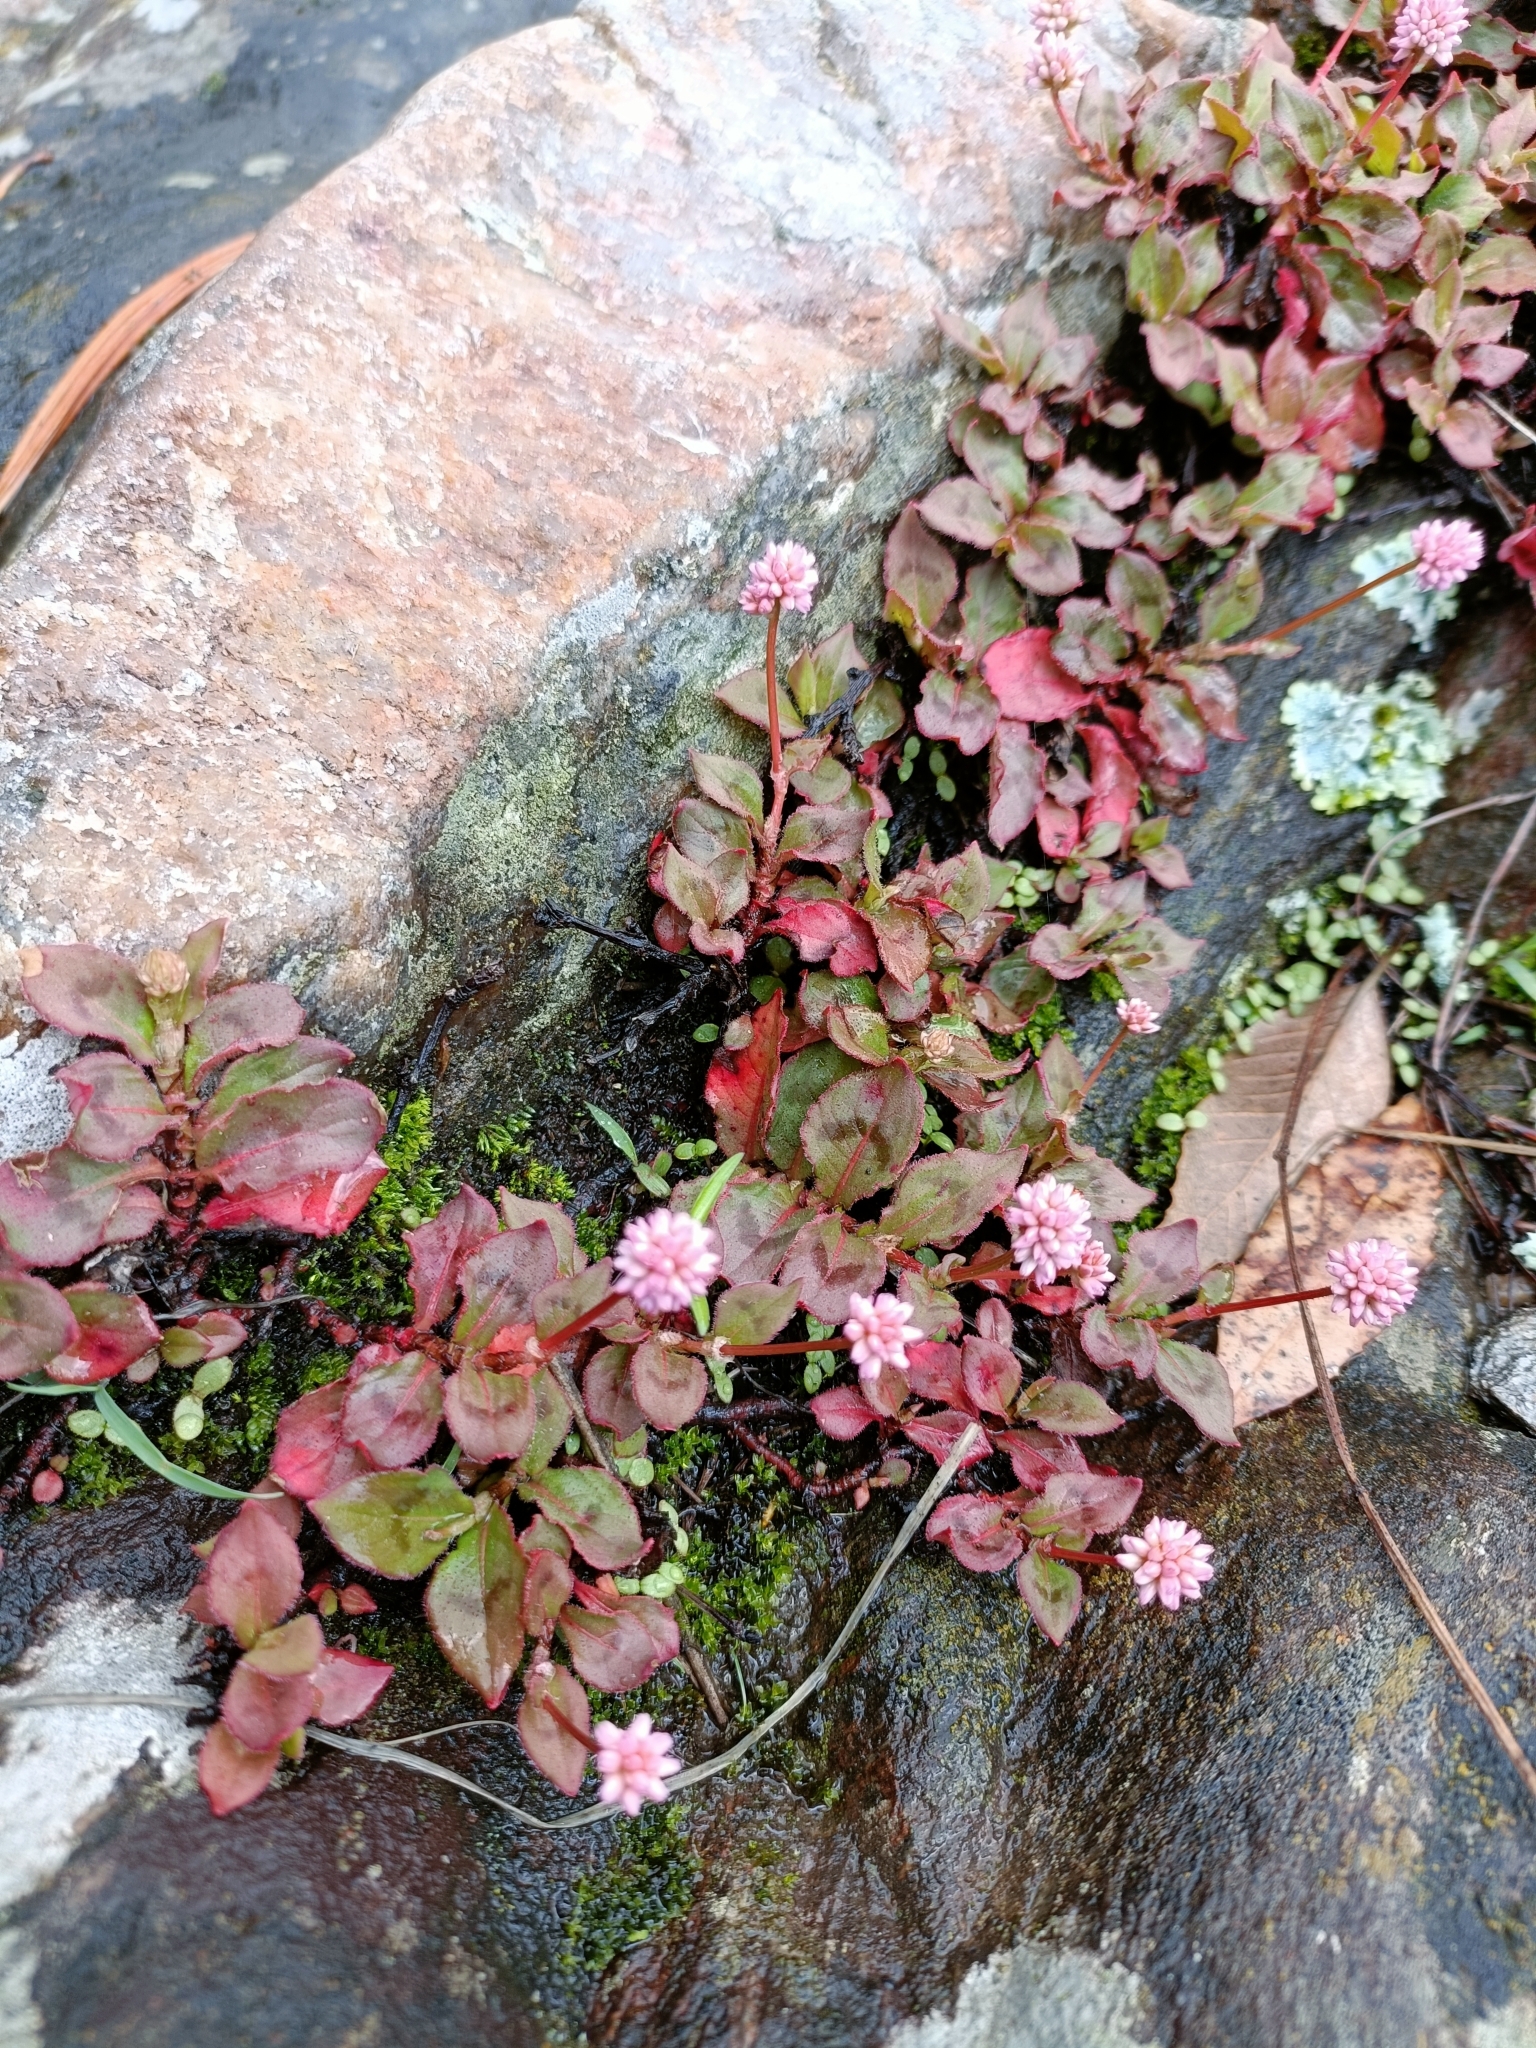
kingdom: Plantae
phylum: Tracheophyta
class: Magnoliopsida
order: Caryophyllales
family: Polygonaceae
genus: Persicaria
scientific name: Persicaria capitata
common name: Pinkhead smartweed
